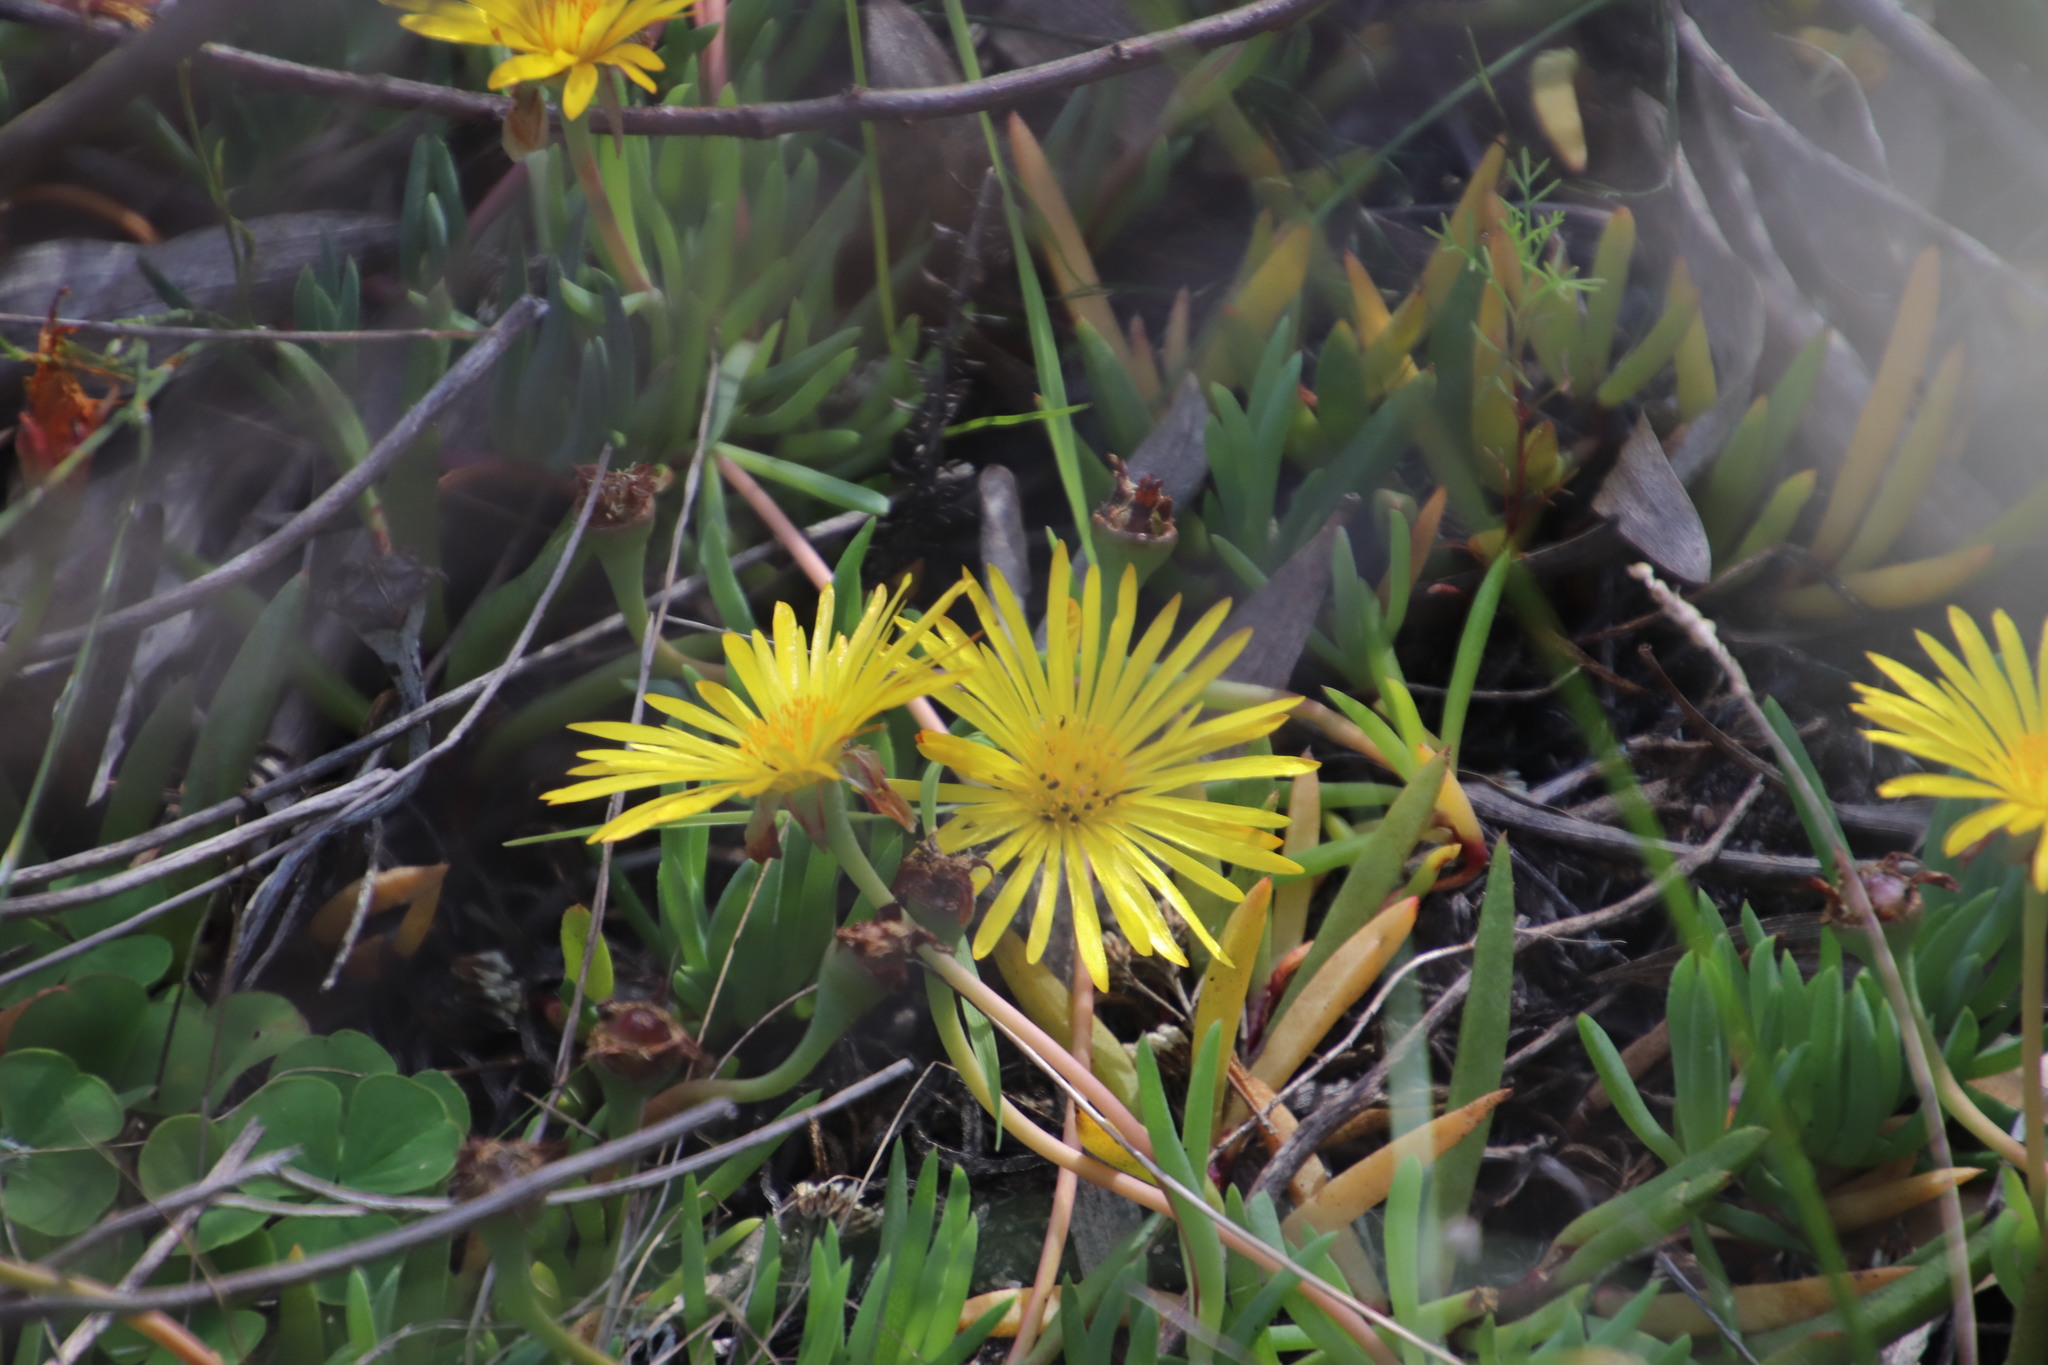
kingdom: Plantae
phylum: Tracheophyta
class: Magnoliopsida
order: Caryophyllales
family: Aizoaceae
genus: Lampranthus
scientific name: Lampranthus reptans
